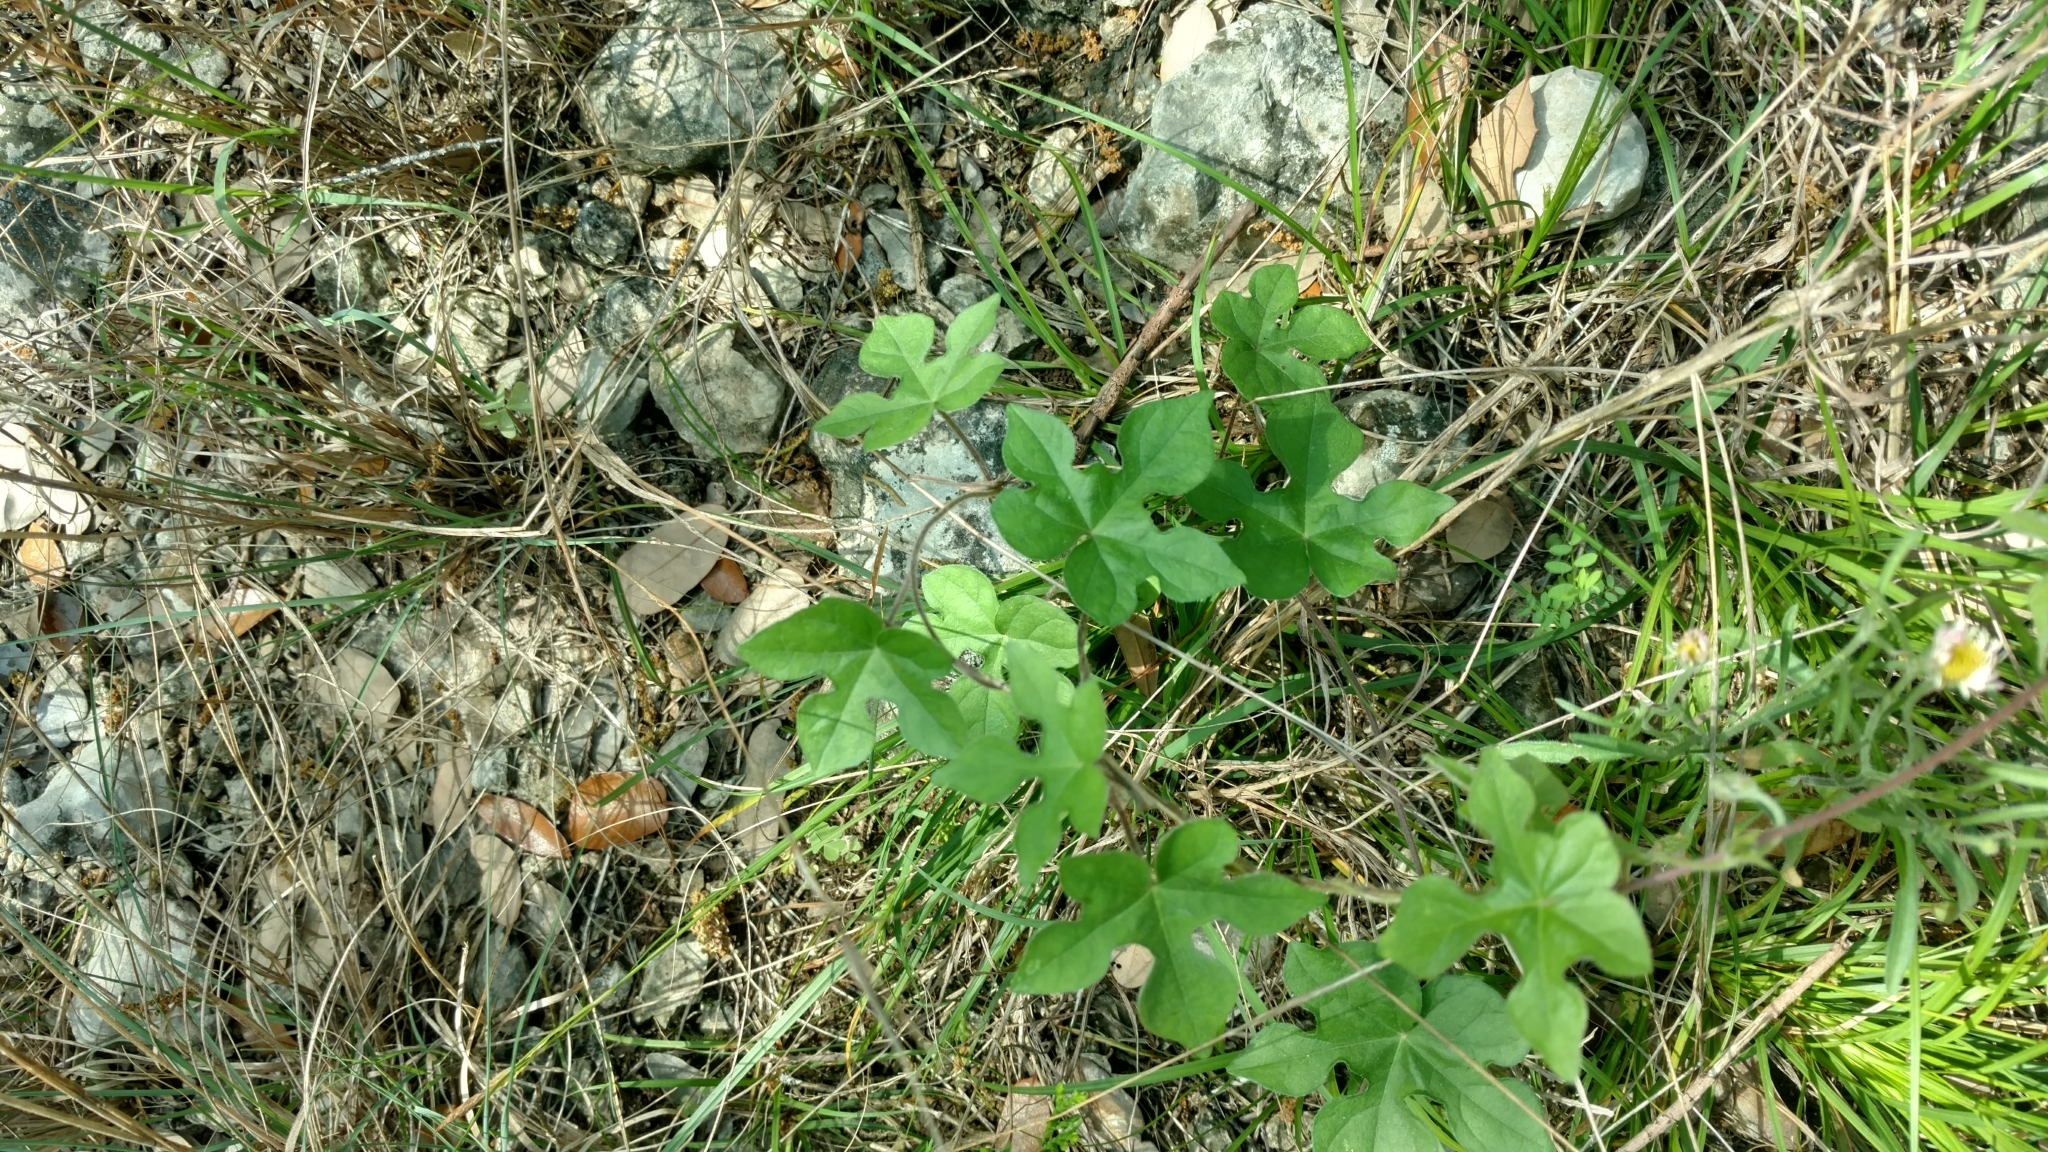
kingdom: Plantae
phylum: Tracheophyta
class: Magnoliopsida
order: Solanales
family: Convolvulaceae
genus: Ipomoea
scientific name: Ipomoea lindheimeri
